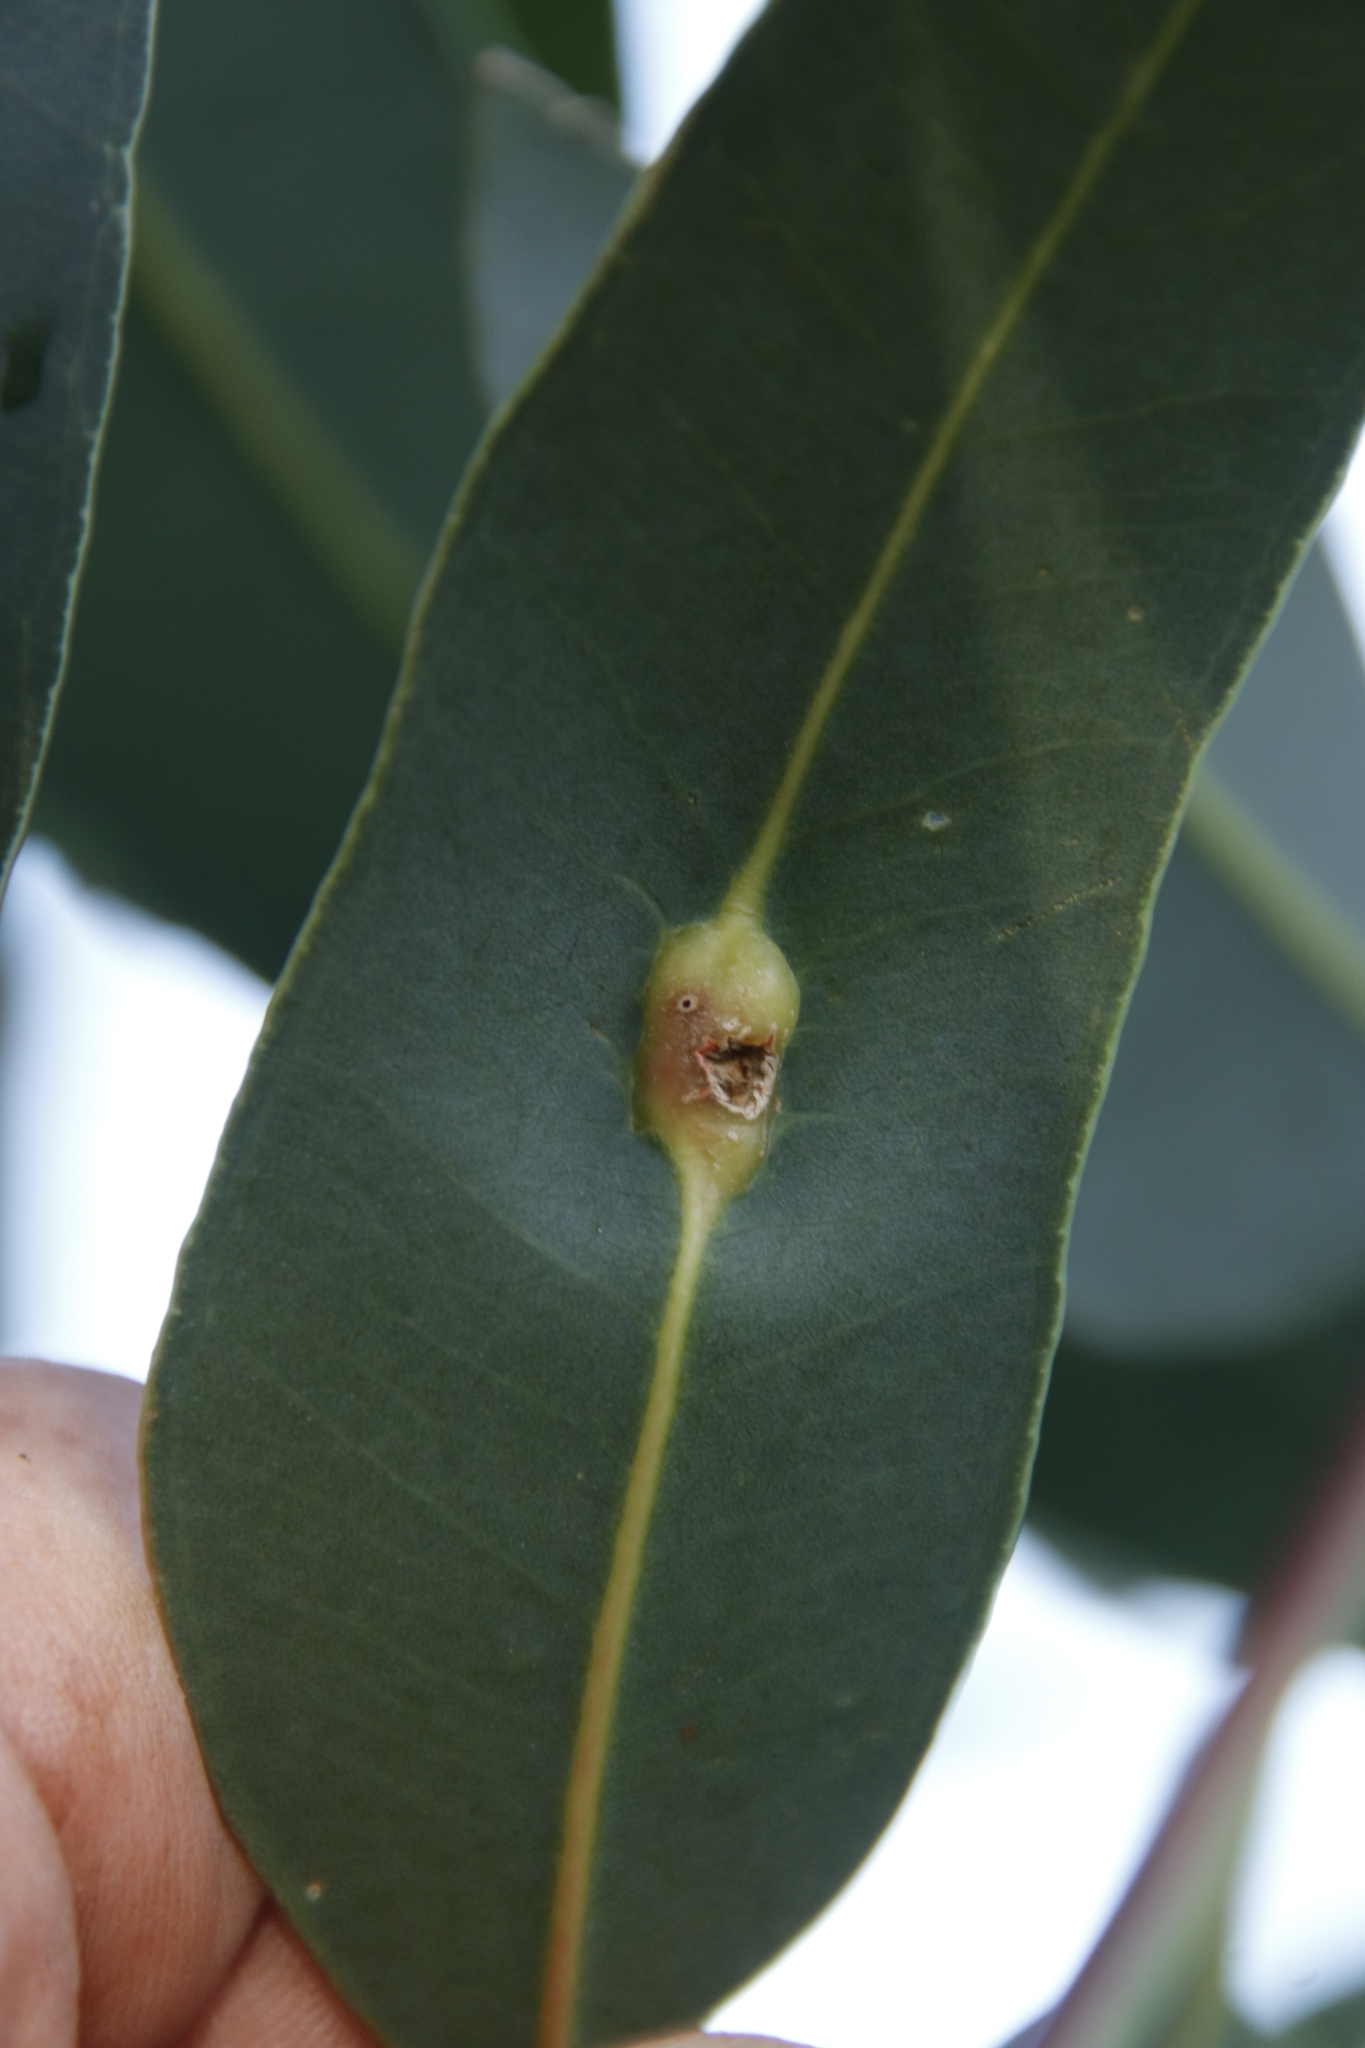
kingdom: Animalia
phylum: Arthropoda
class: Insecta
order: Hymenoptera
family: Eulophidae
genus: Leptocybe
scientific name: Leptocybe invasa
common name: Gall wasp
